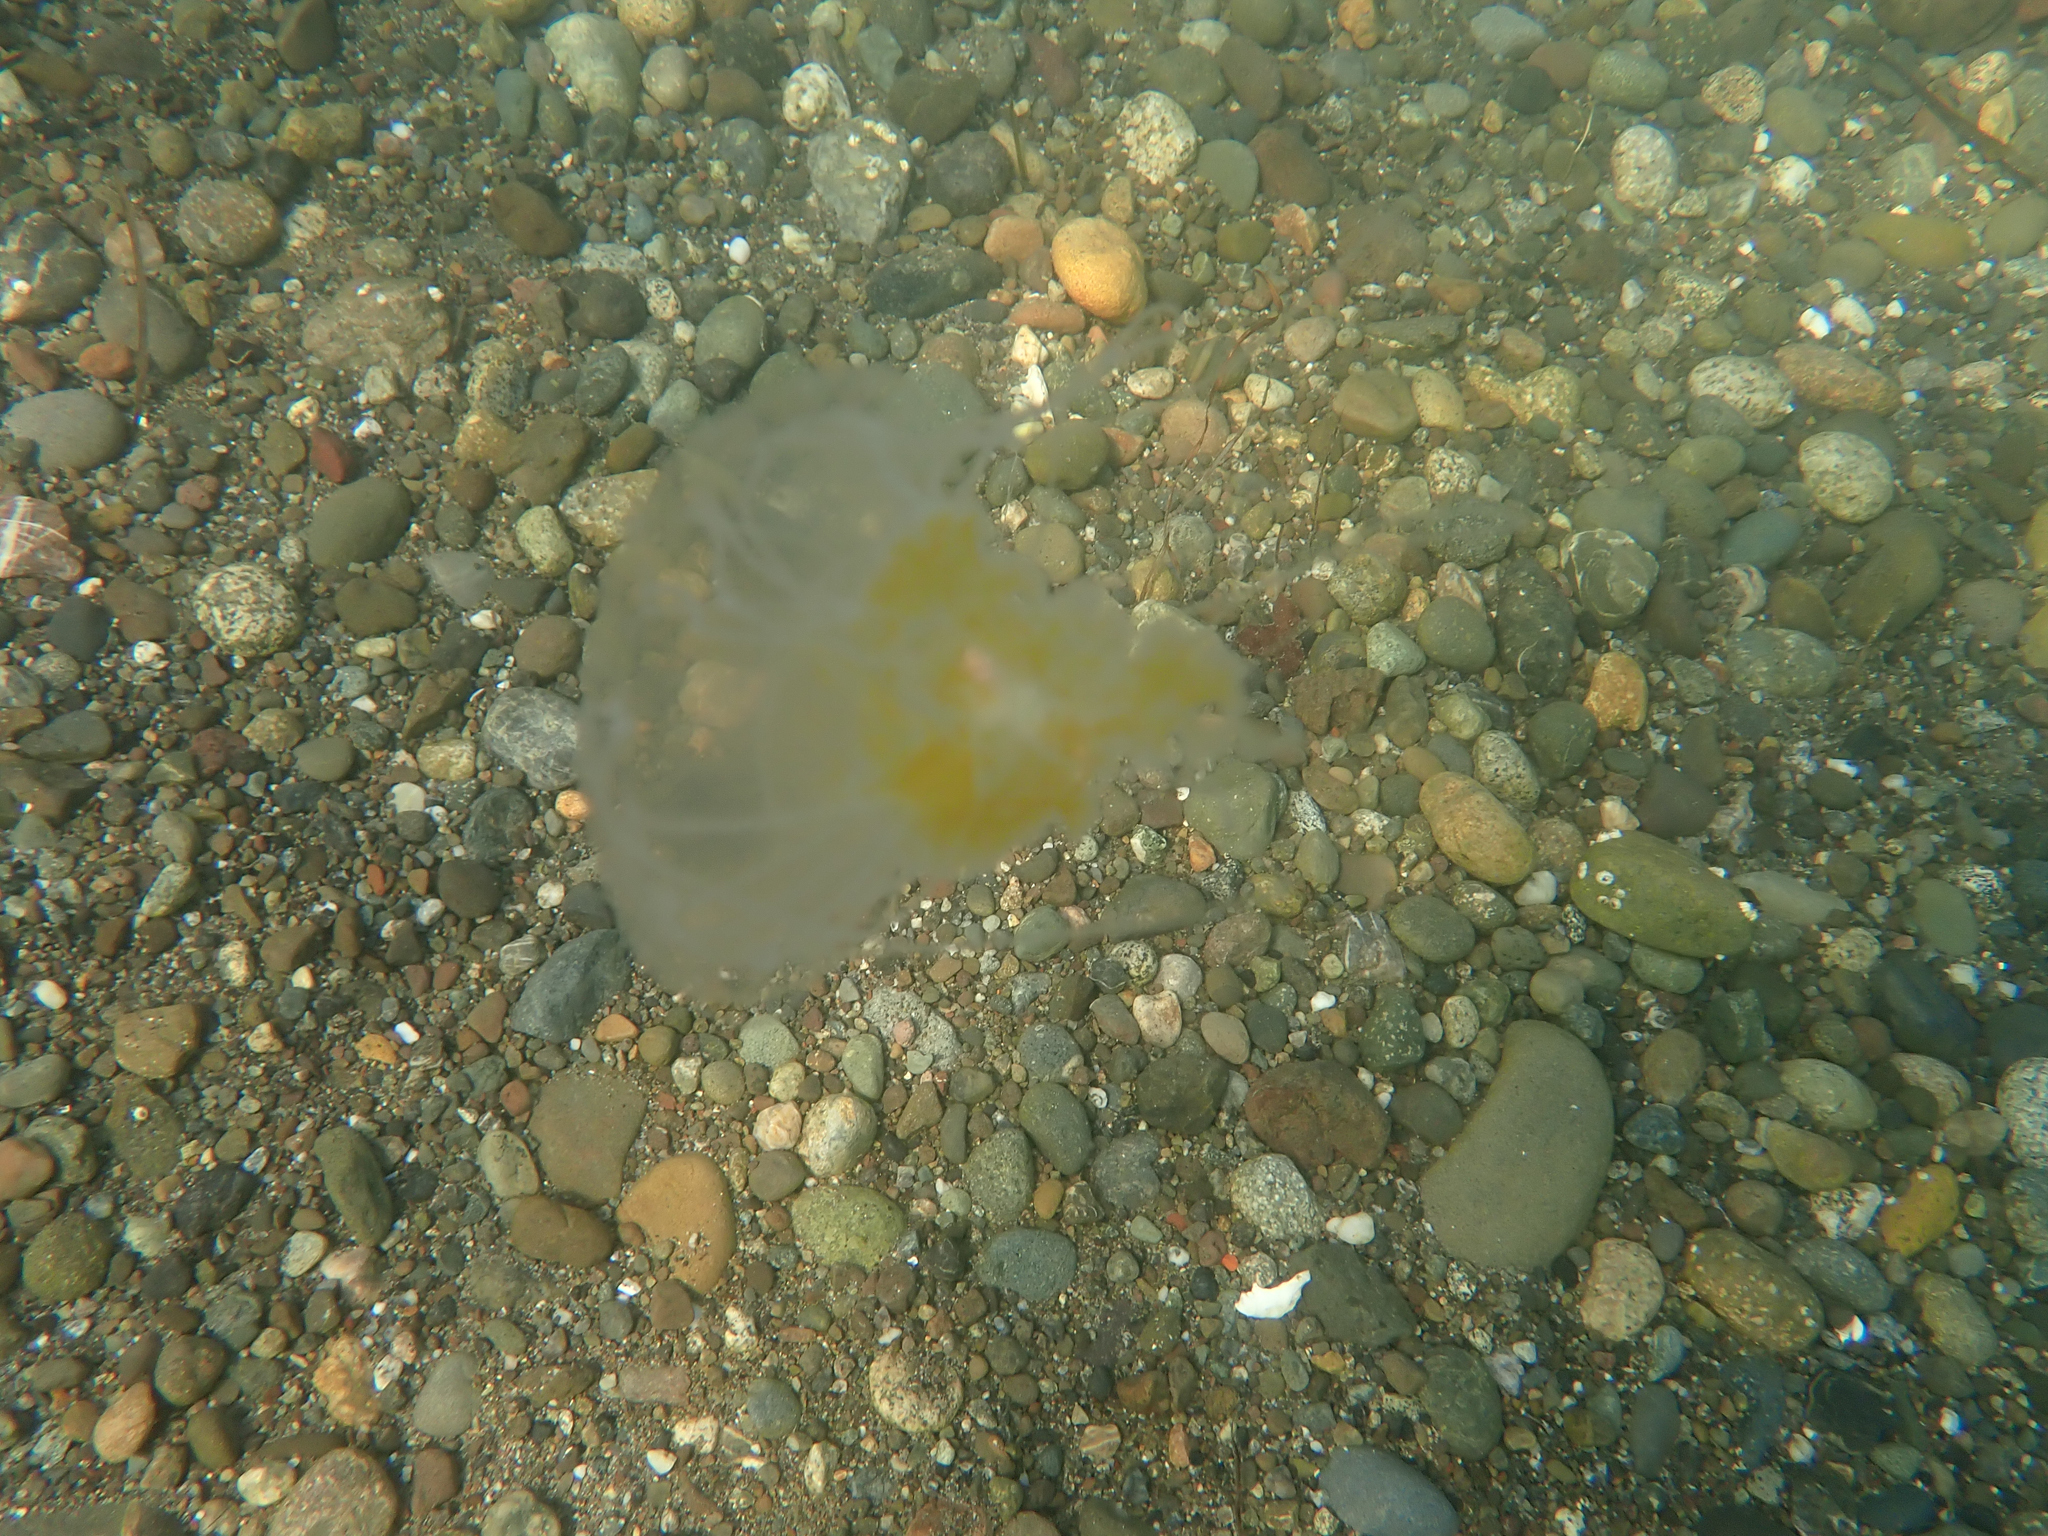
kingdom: Animalia
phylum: Cnidaria
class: Scyphozoa
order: Semaeostomeae
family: Phacellophoridae
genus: Phacellophora
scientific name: Phacellophora camtschatica
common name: Fried-egg jellyfish
